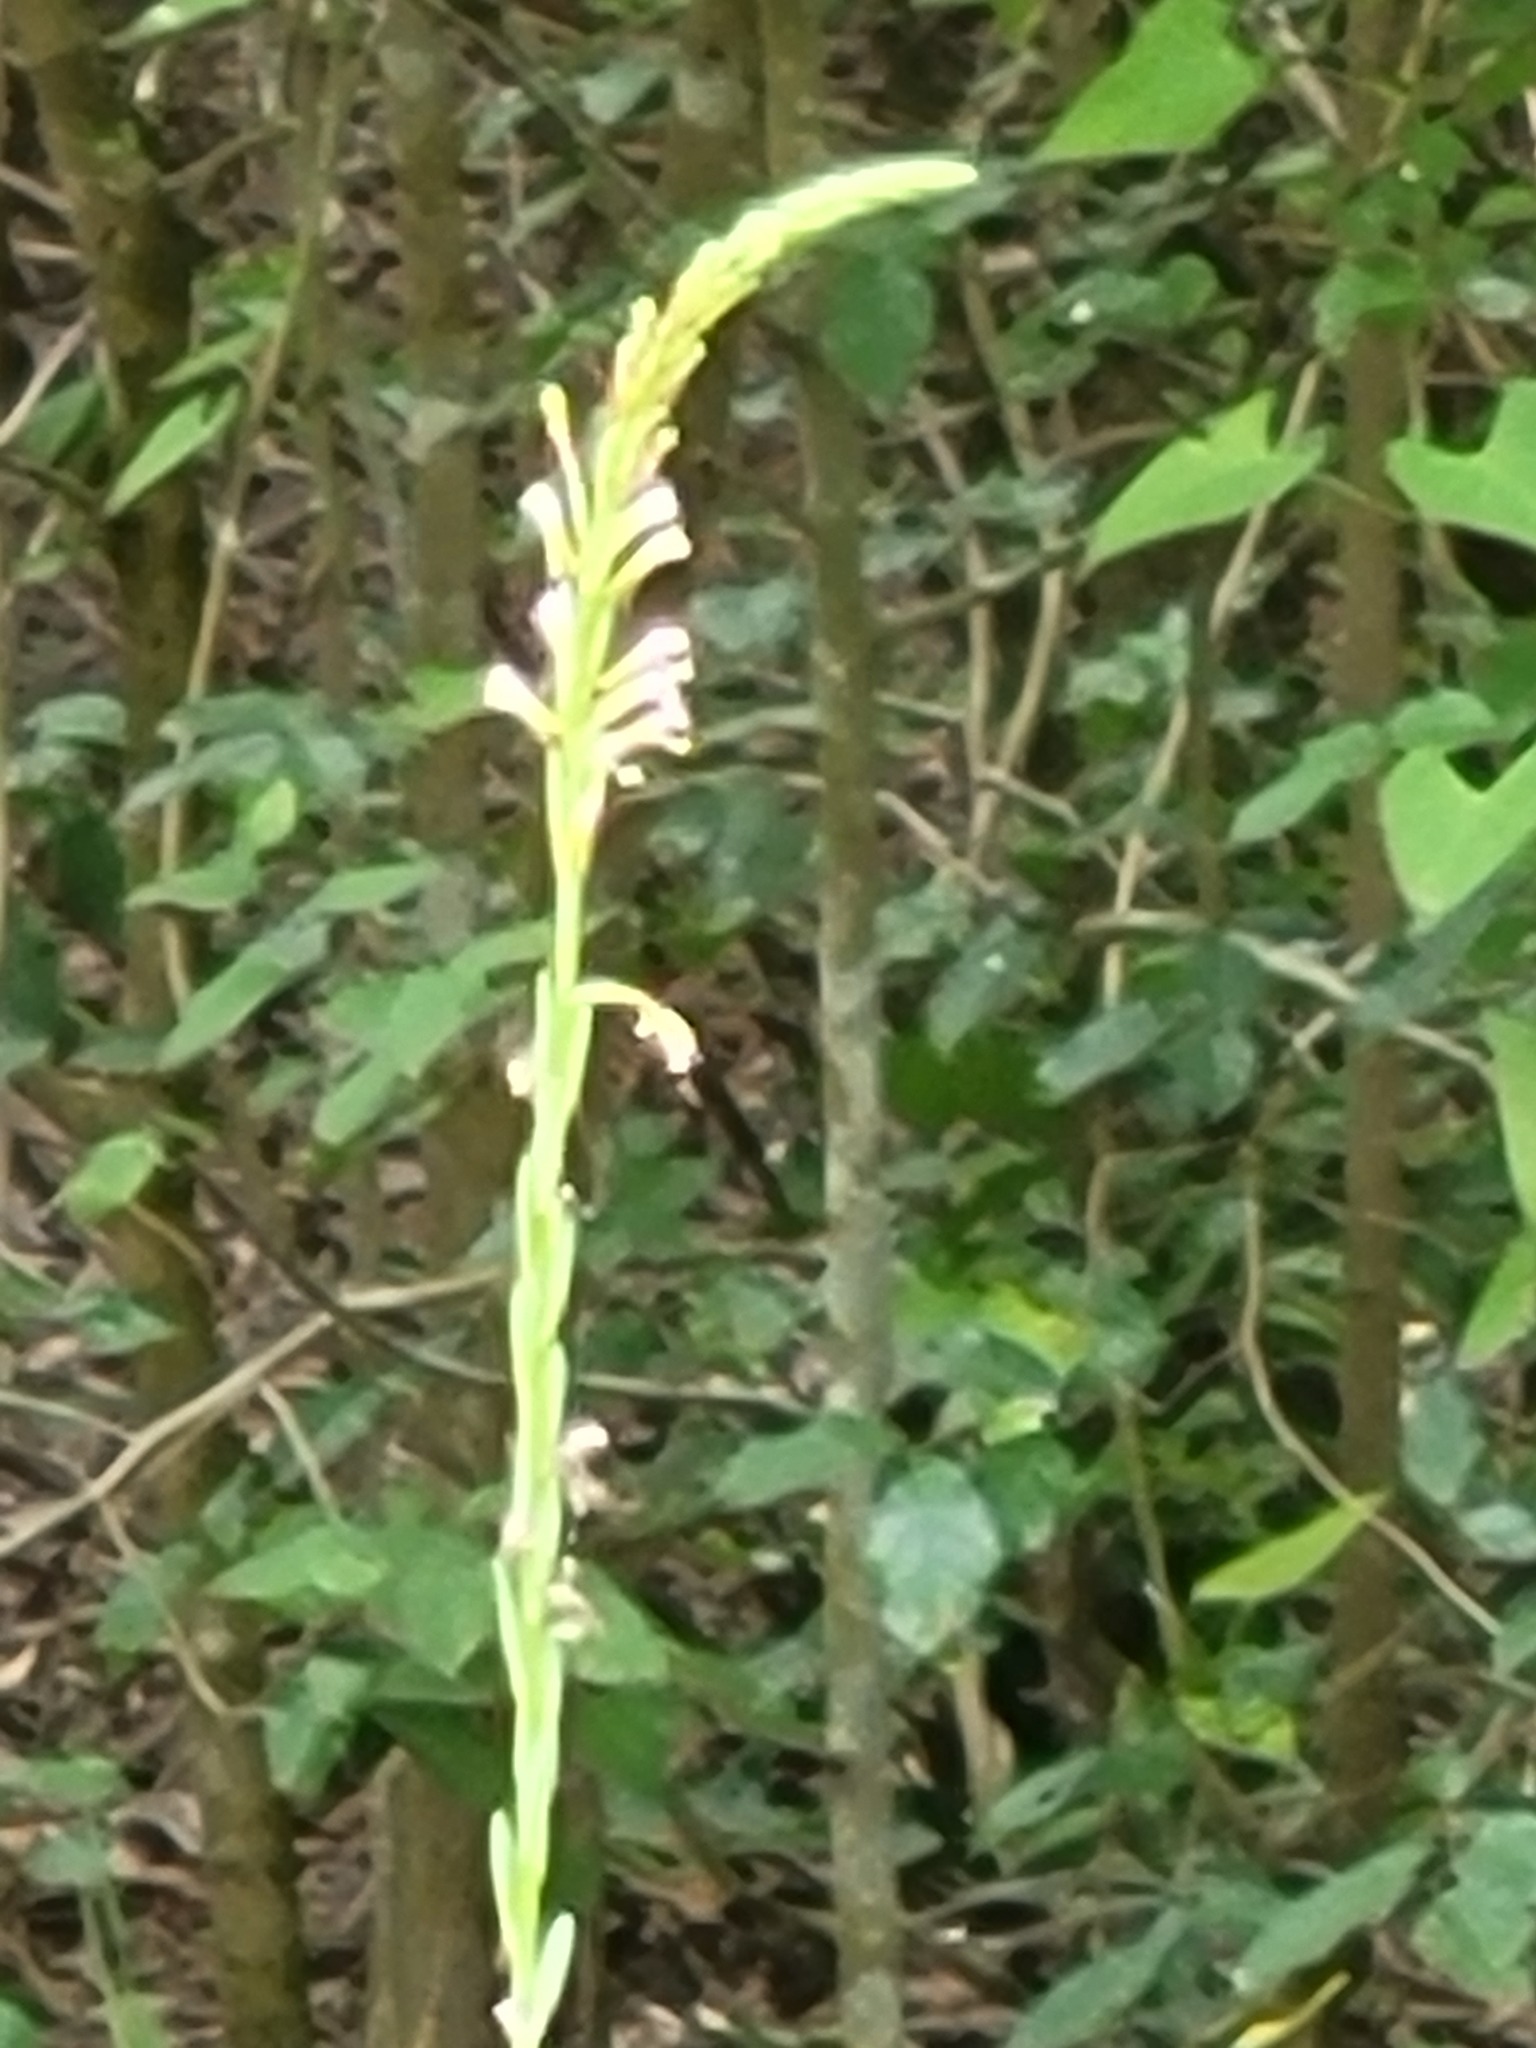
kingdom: Plantae
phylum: Tracheophyta
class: Magnoliopsida
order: Myrtales
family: Onagraceae
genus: Oenothera
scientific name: Oenothera curtiflora
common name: Velvetweed
